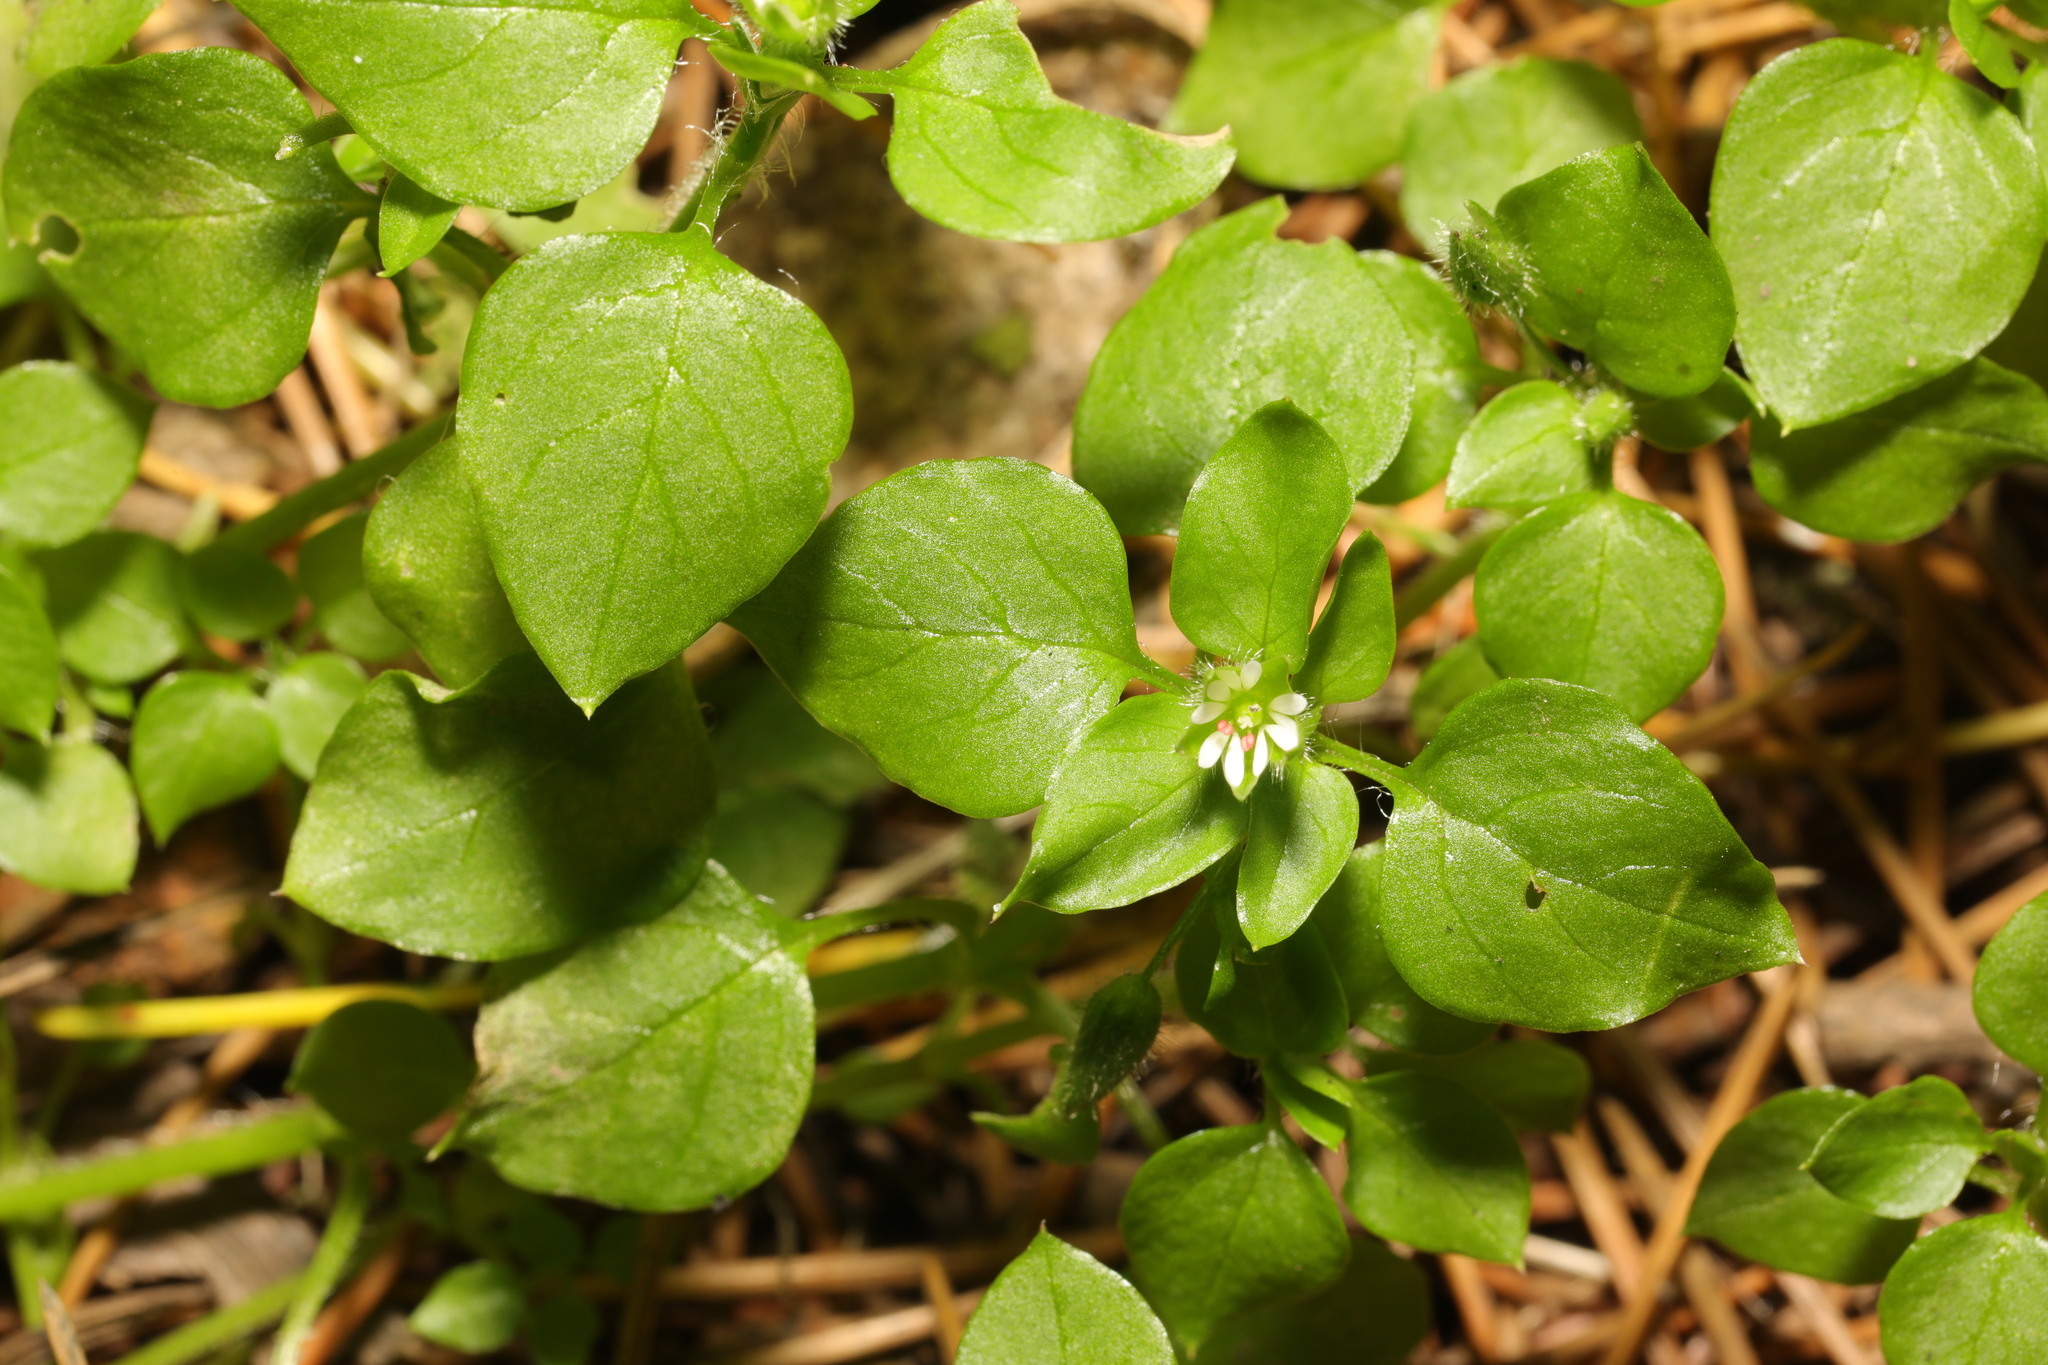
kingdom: Plantae
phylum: Tracheophyta
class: Magnoliopsida
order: Caryophyllales
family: Caryophyllaceae
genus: Stellaria
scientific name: Stellaria media
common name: Common chickweed
